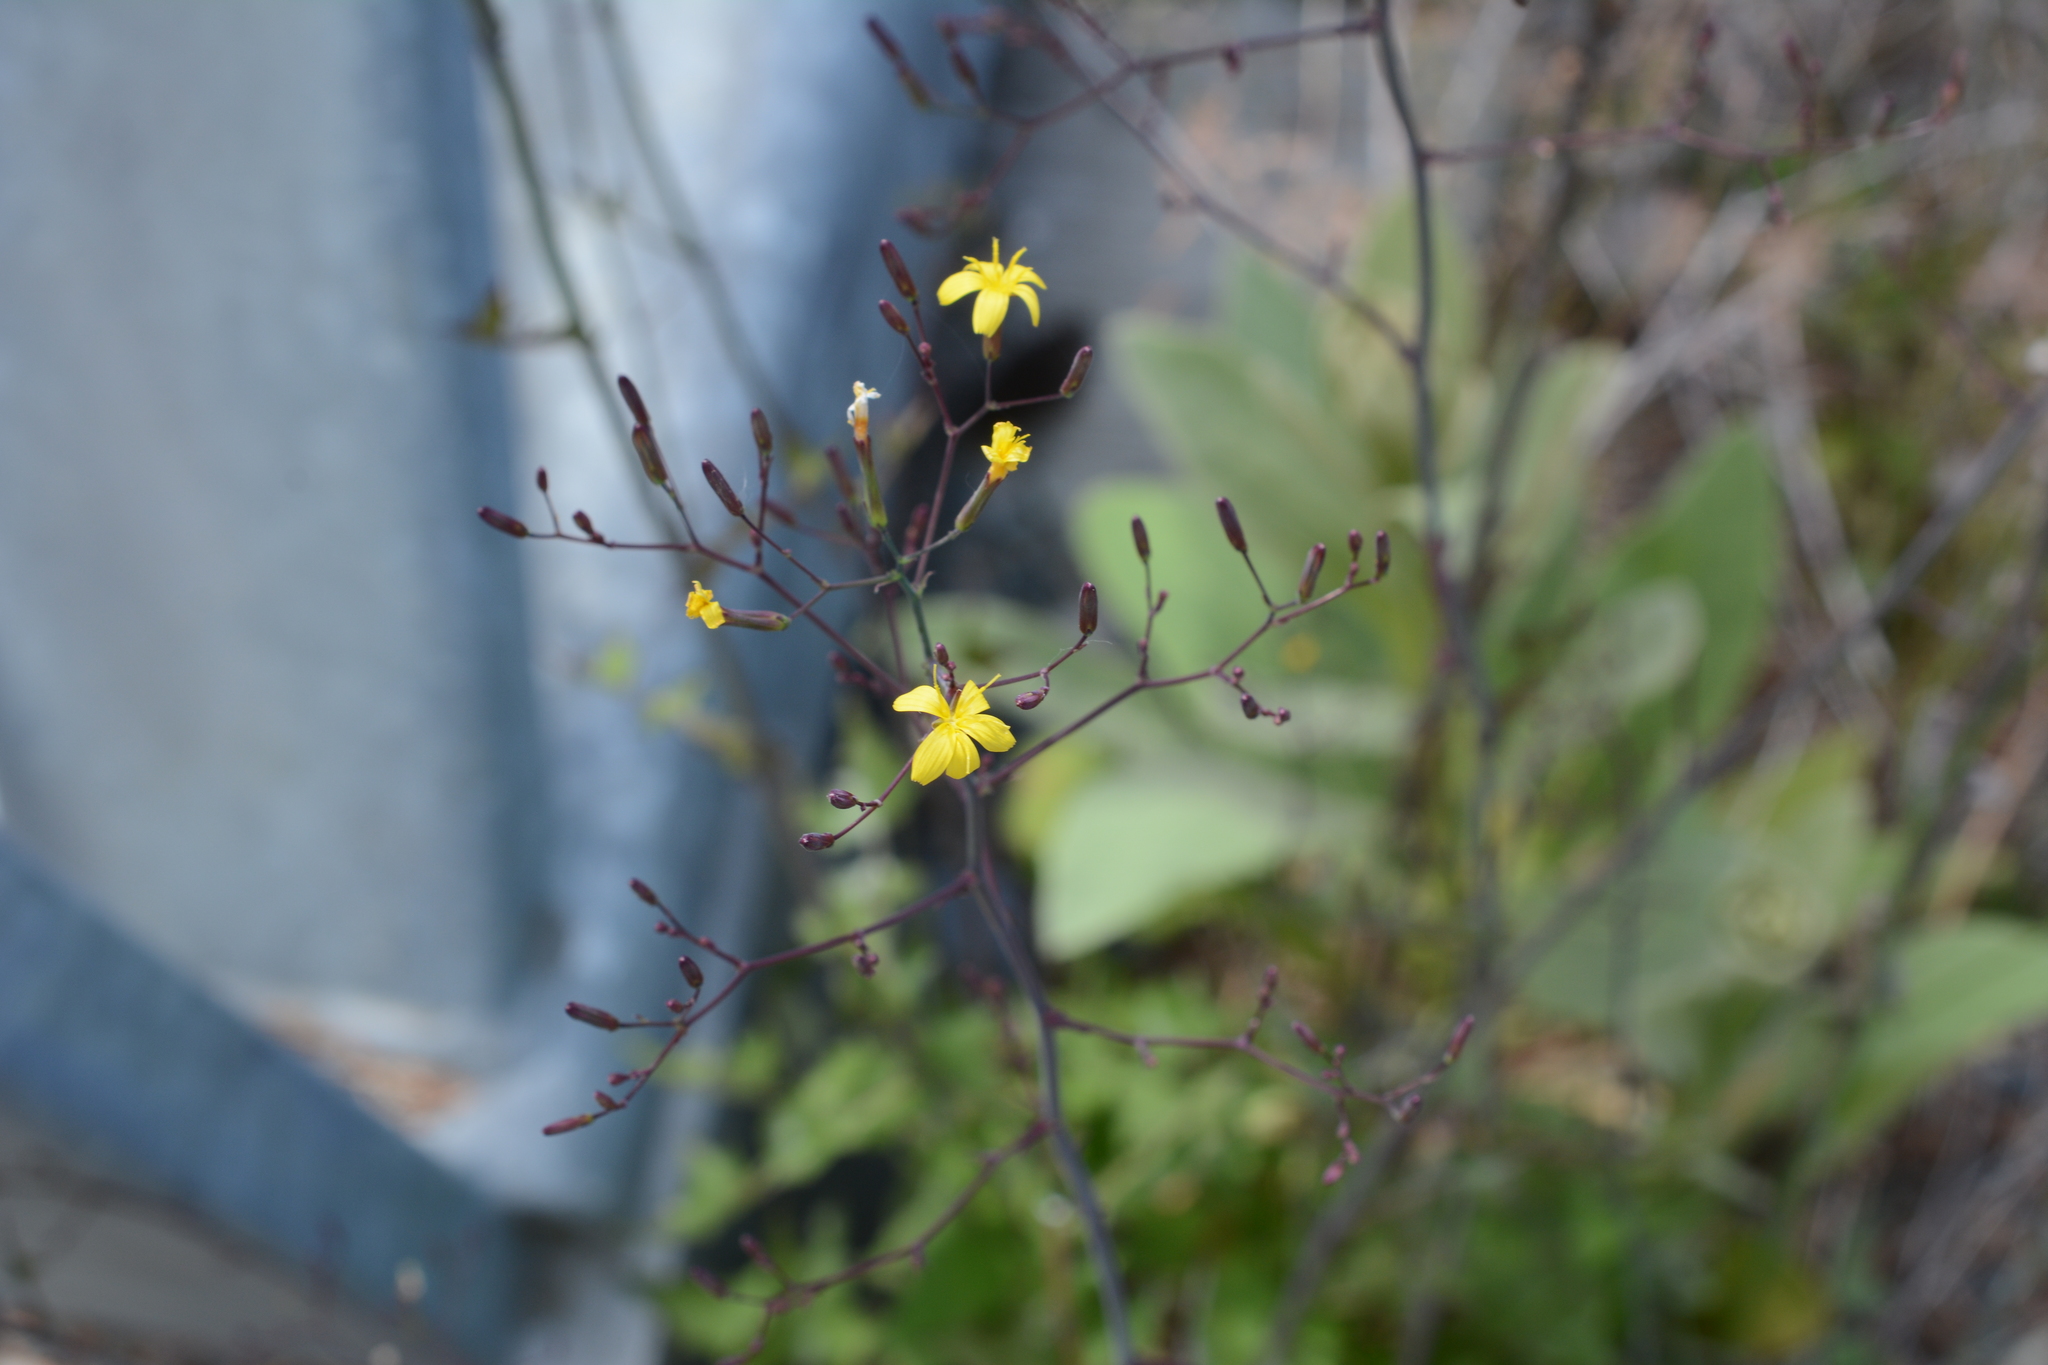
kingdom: Plantae
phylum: Tracheophyta
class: Magnoliopsida
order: Asterales
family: Asteraceae
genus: Mycelis
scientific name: Mycelis muralis
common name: Wall lettuce
